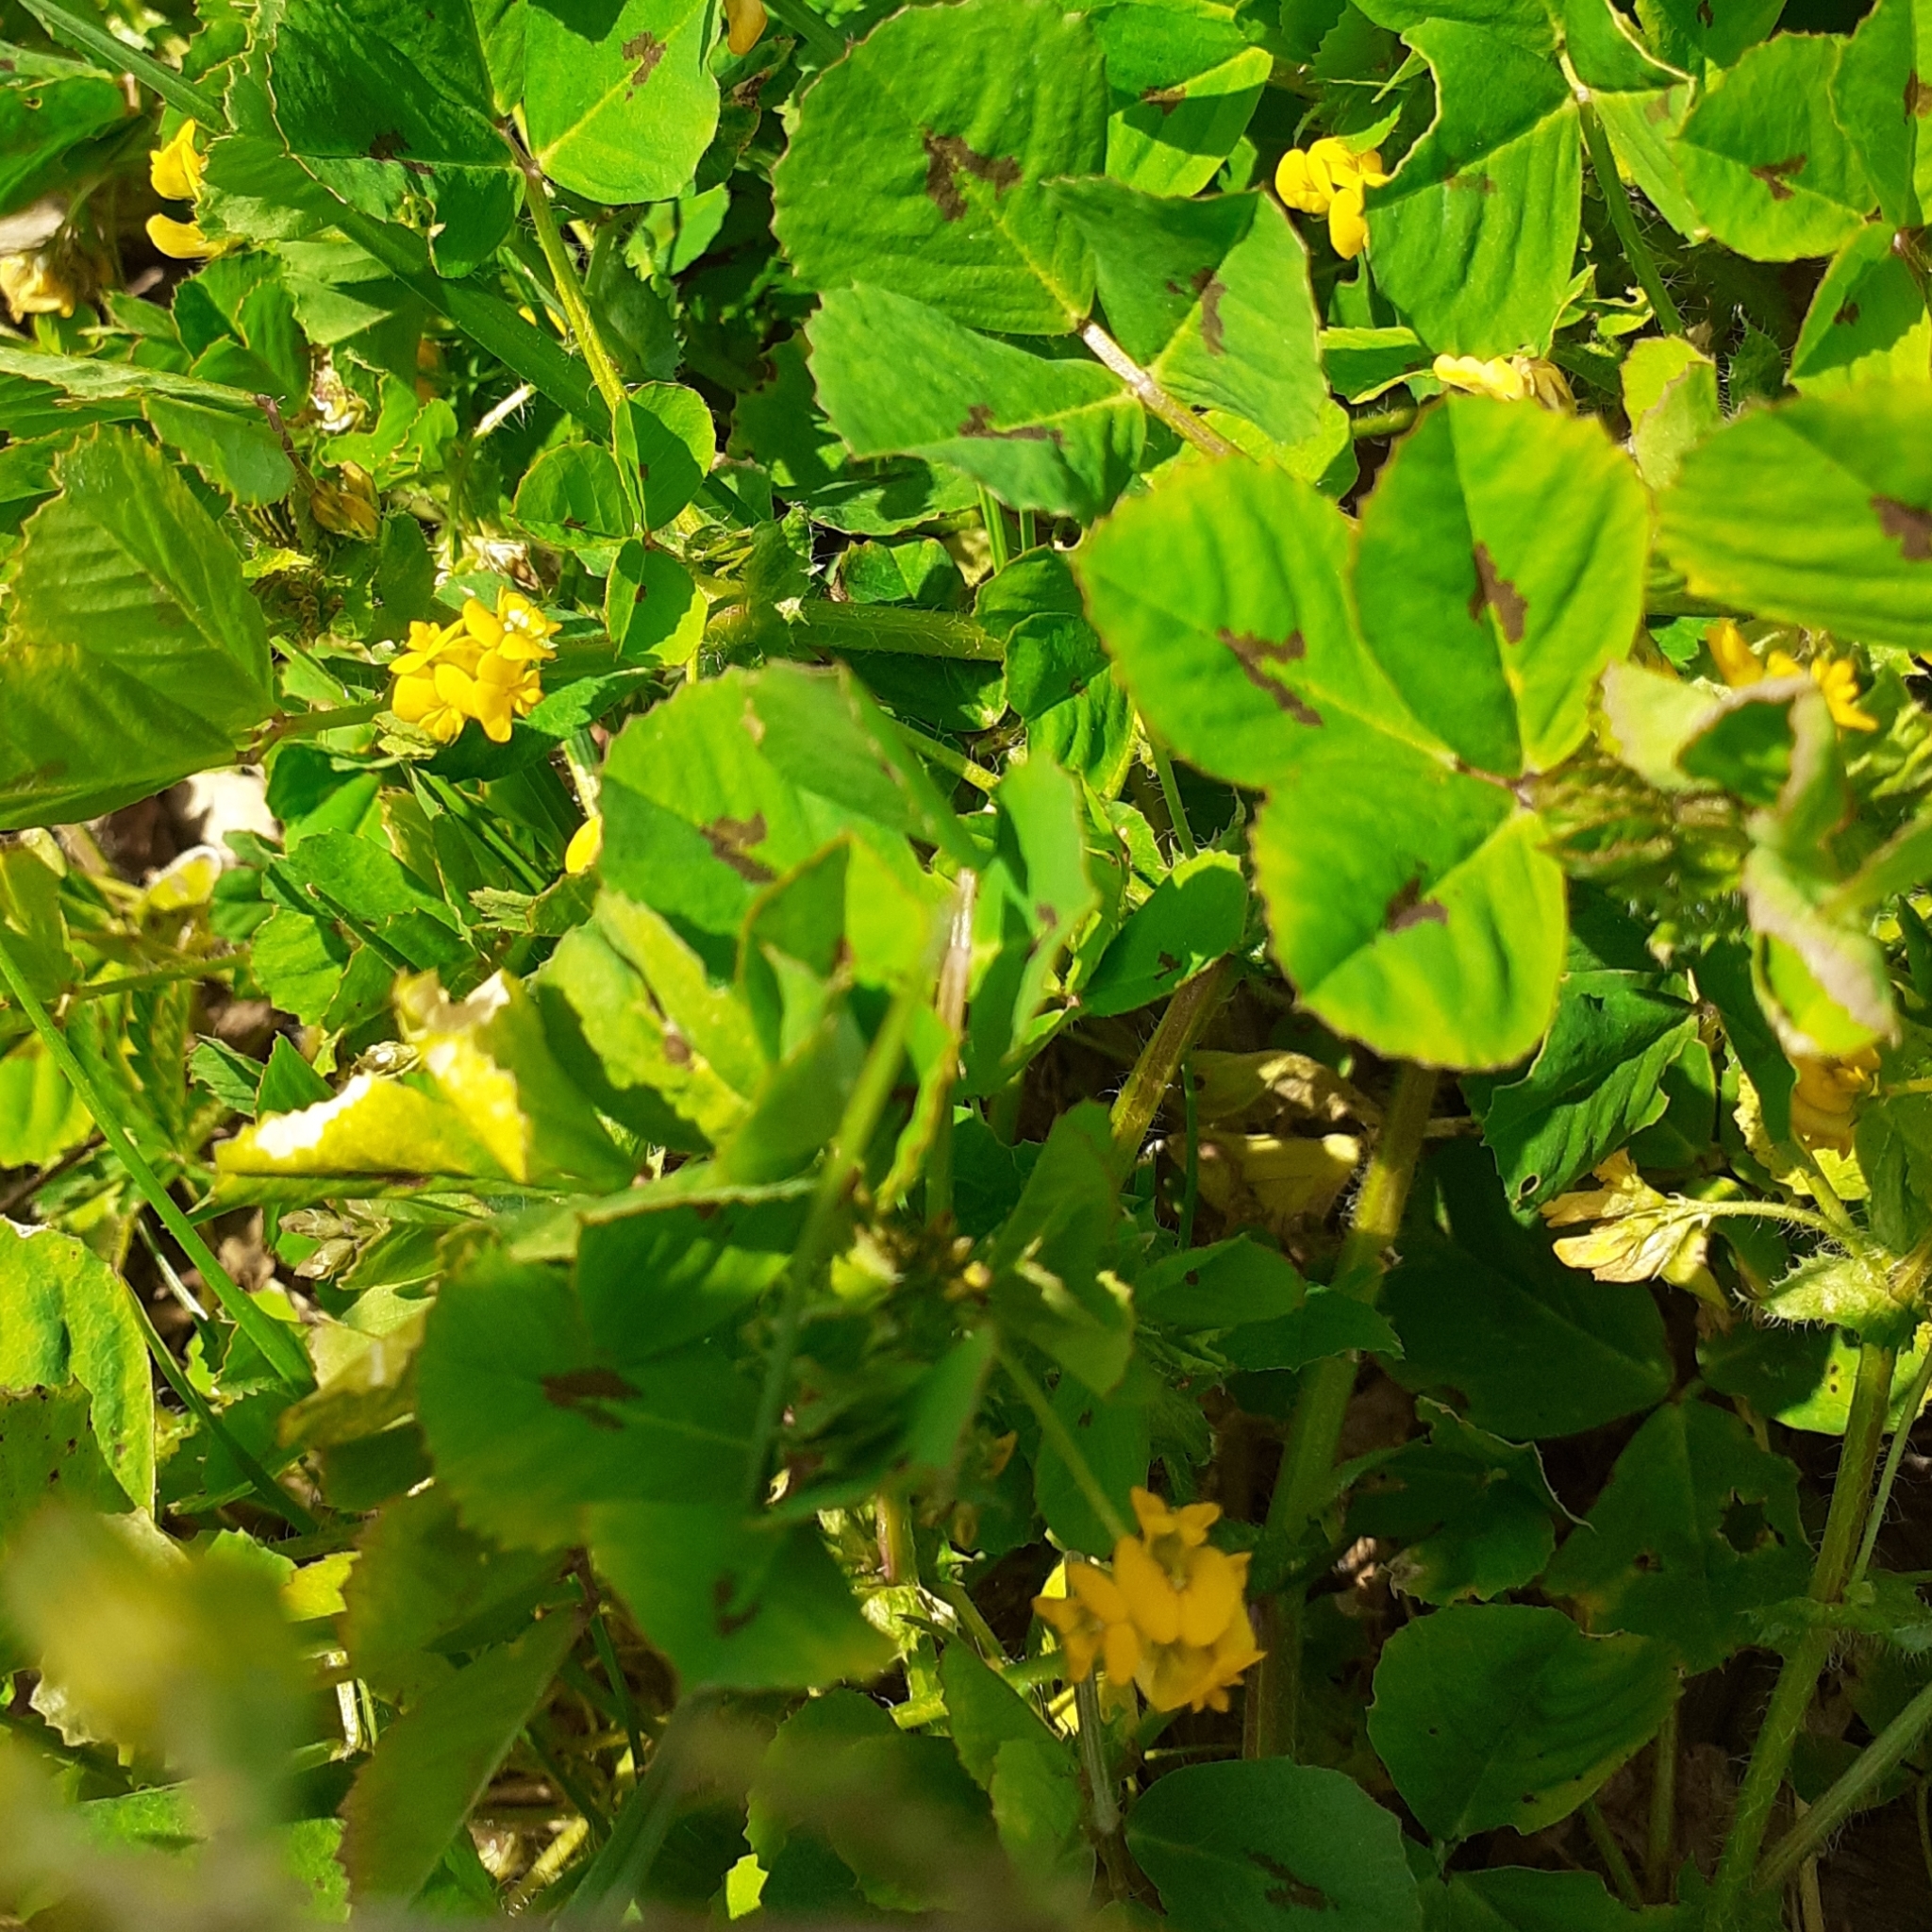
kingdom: Plantae
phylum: Tracheophyta
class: Magnoliopsida
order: Fabales
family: Fabaceae
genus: Medicago
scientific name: Medicago arabica
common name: Spotted medick
